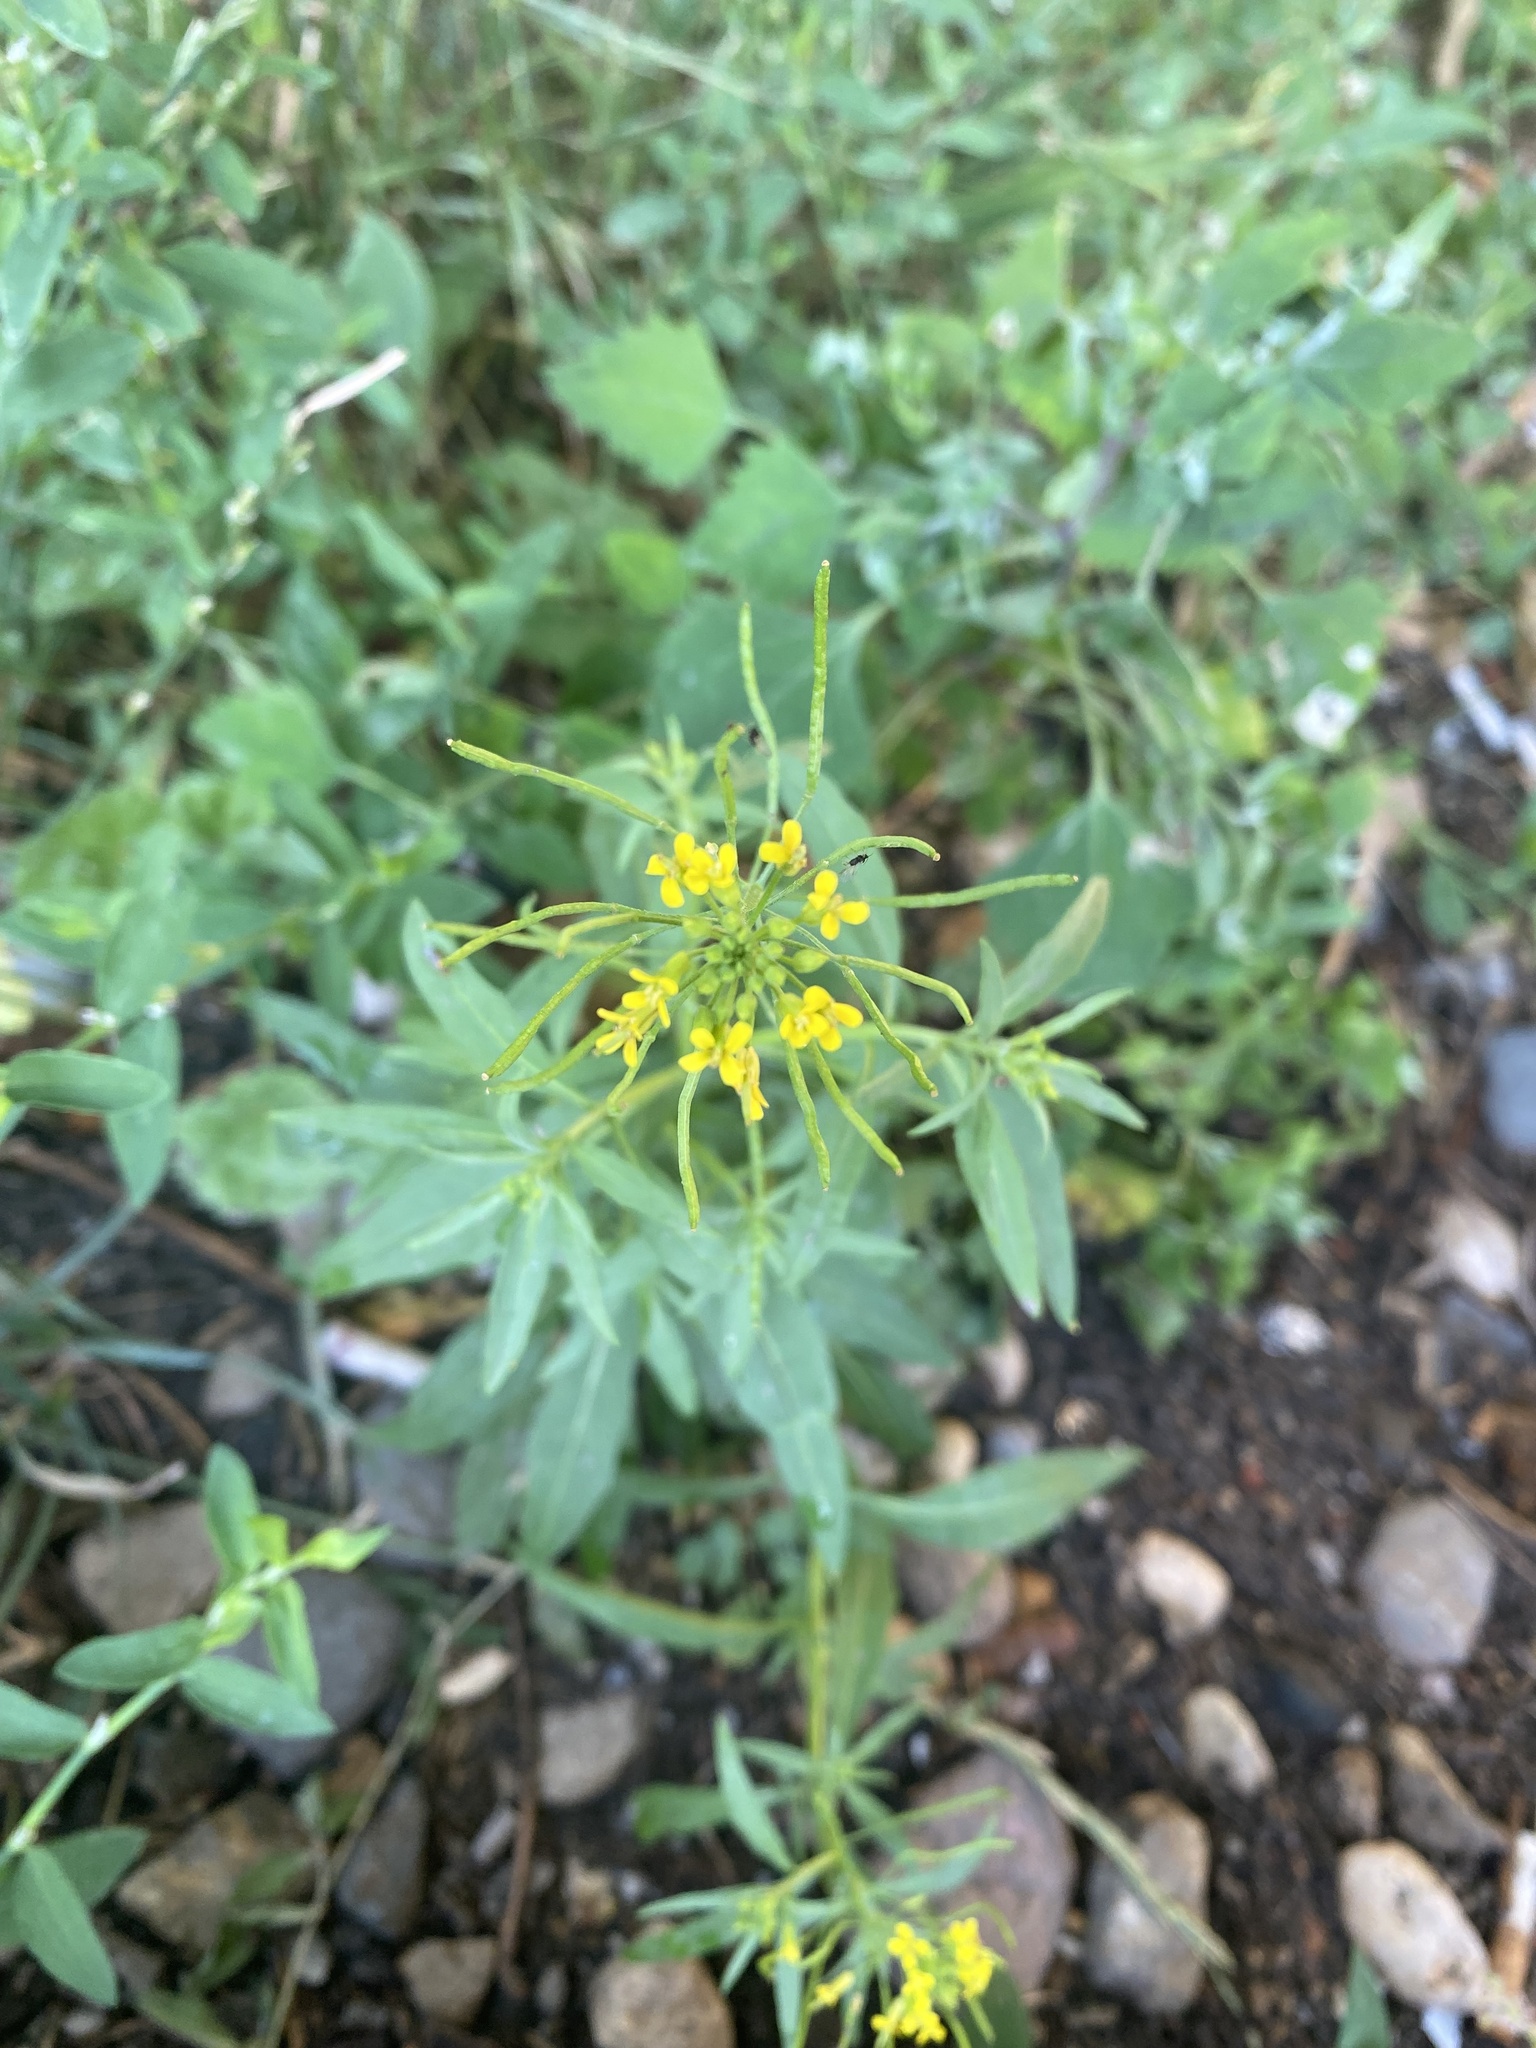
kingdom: Plantae
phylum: Tracheophyta
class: Magnoliopsida
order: Brassicales
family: Brassicaceae
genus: Erysimum
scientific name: Erysimum cheiranthoides
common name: Treacle mustard
